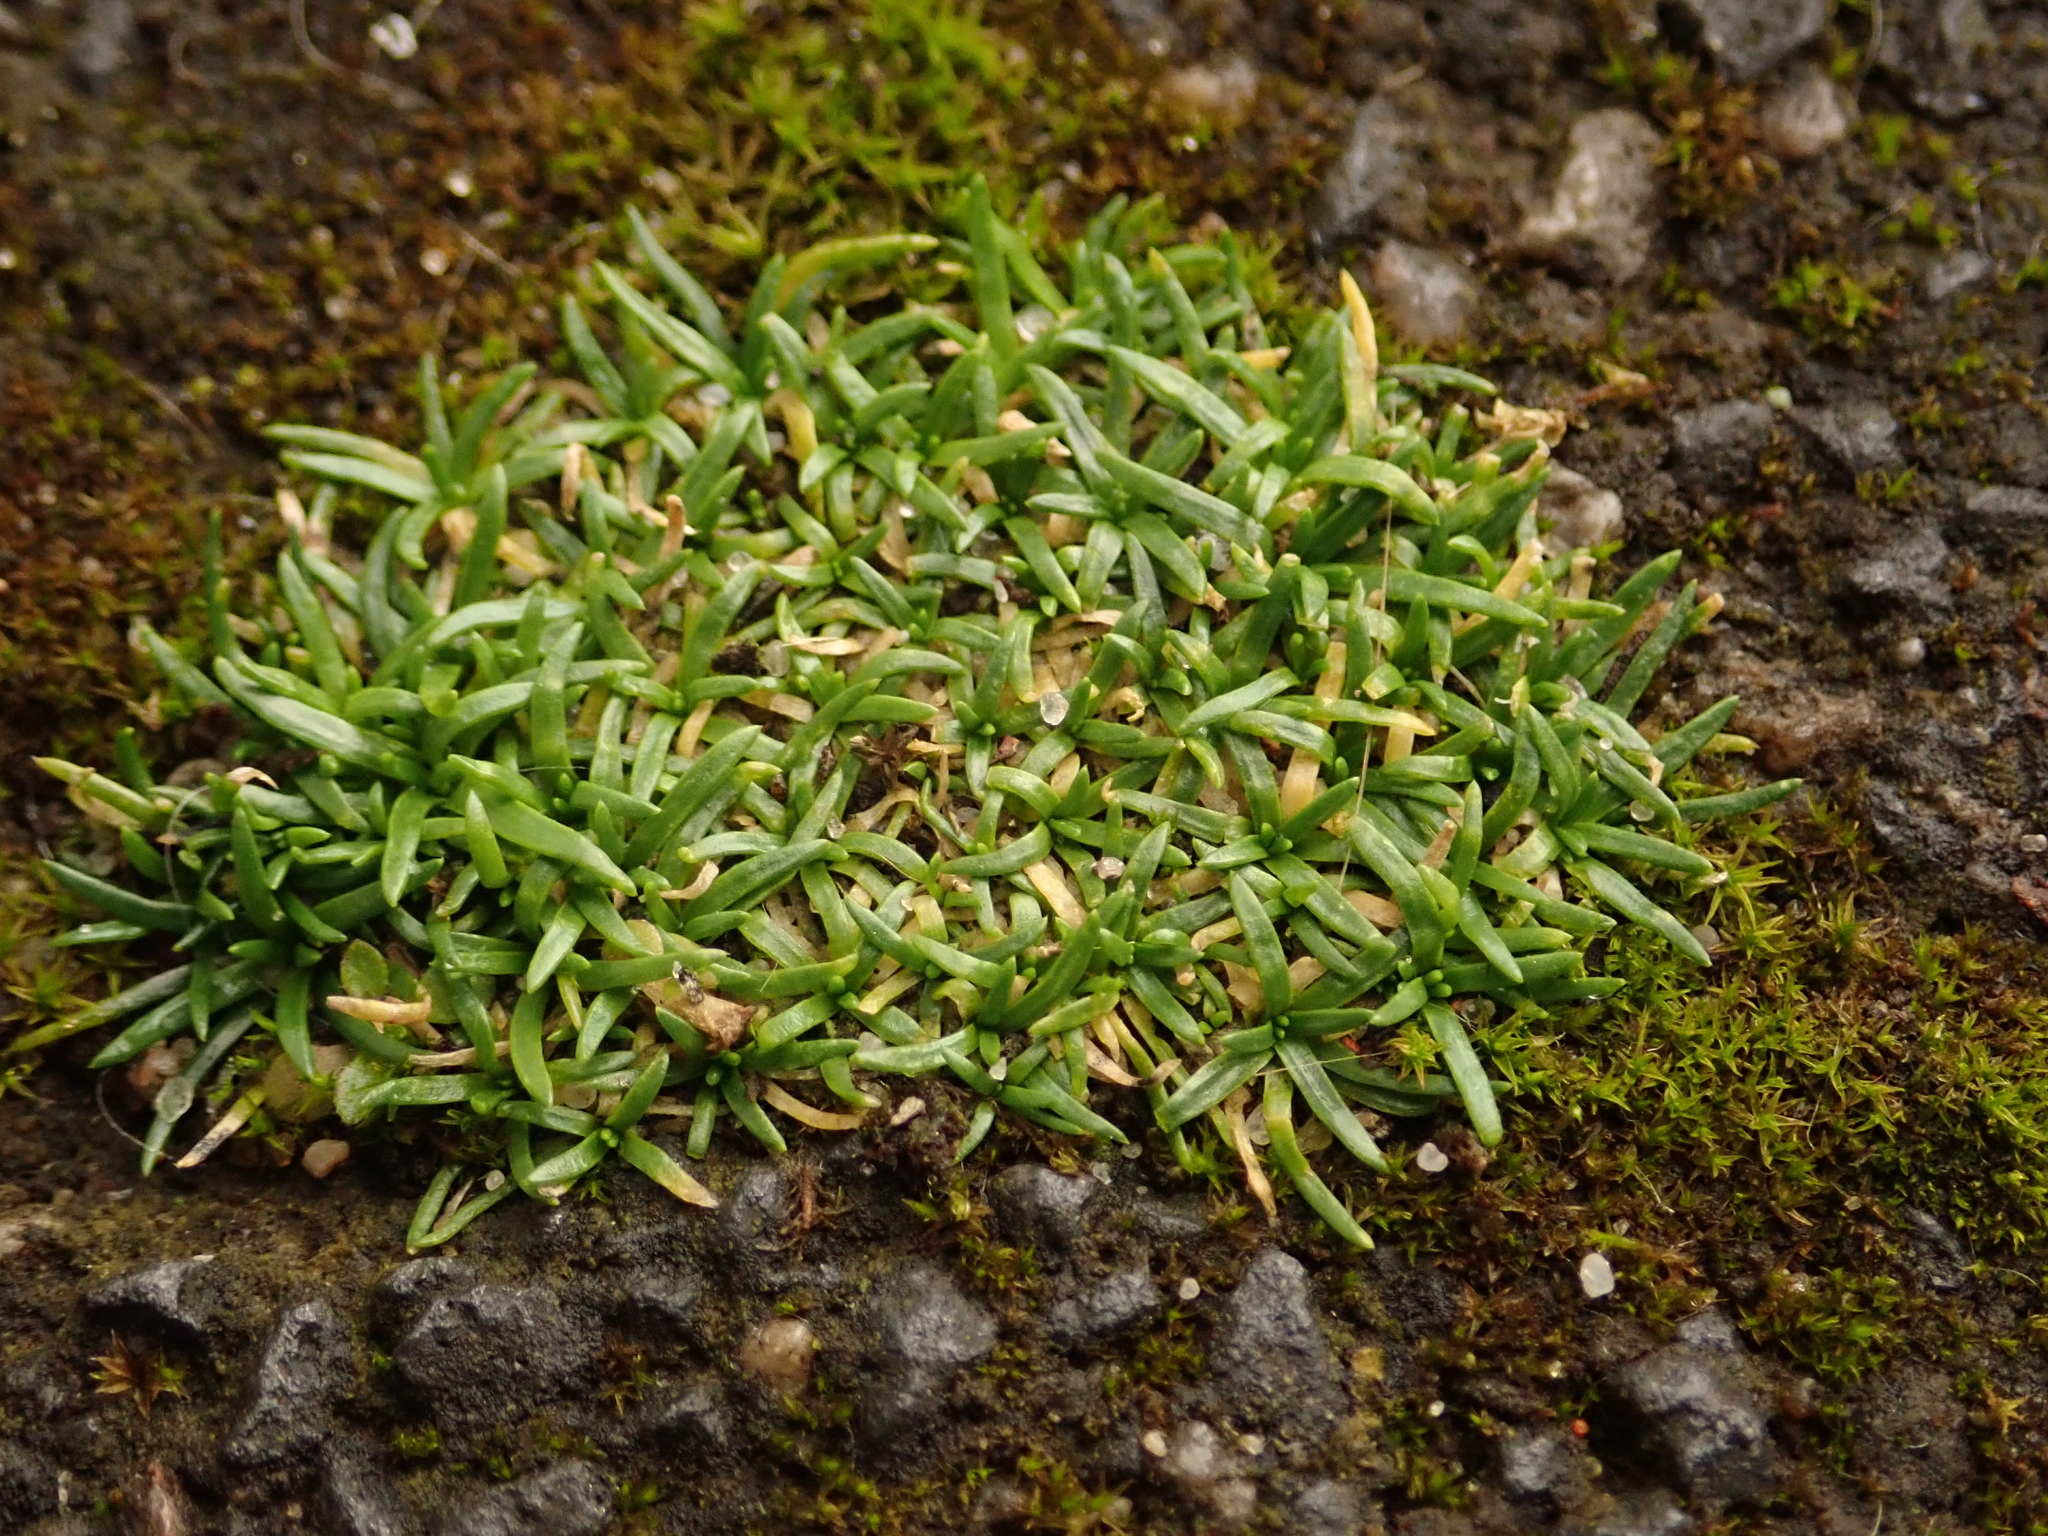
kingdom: Plantae
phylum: Tracheophyta
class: Magnoliopsida
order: Caryophyllales
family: Caryophyllaceae
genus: Sagina
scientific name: Sagina procumbens
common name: Procumbent pearlwort
